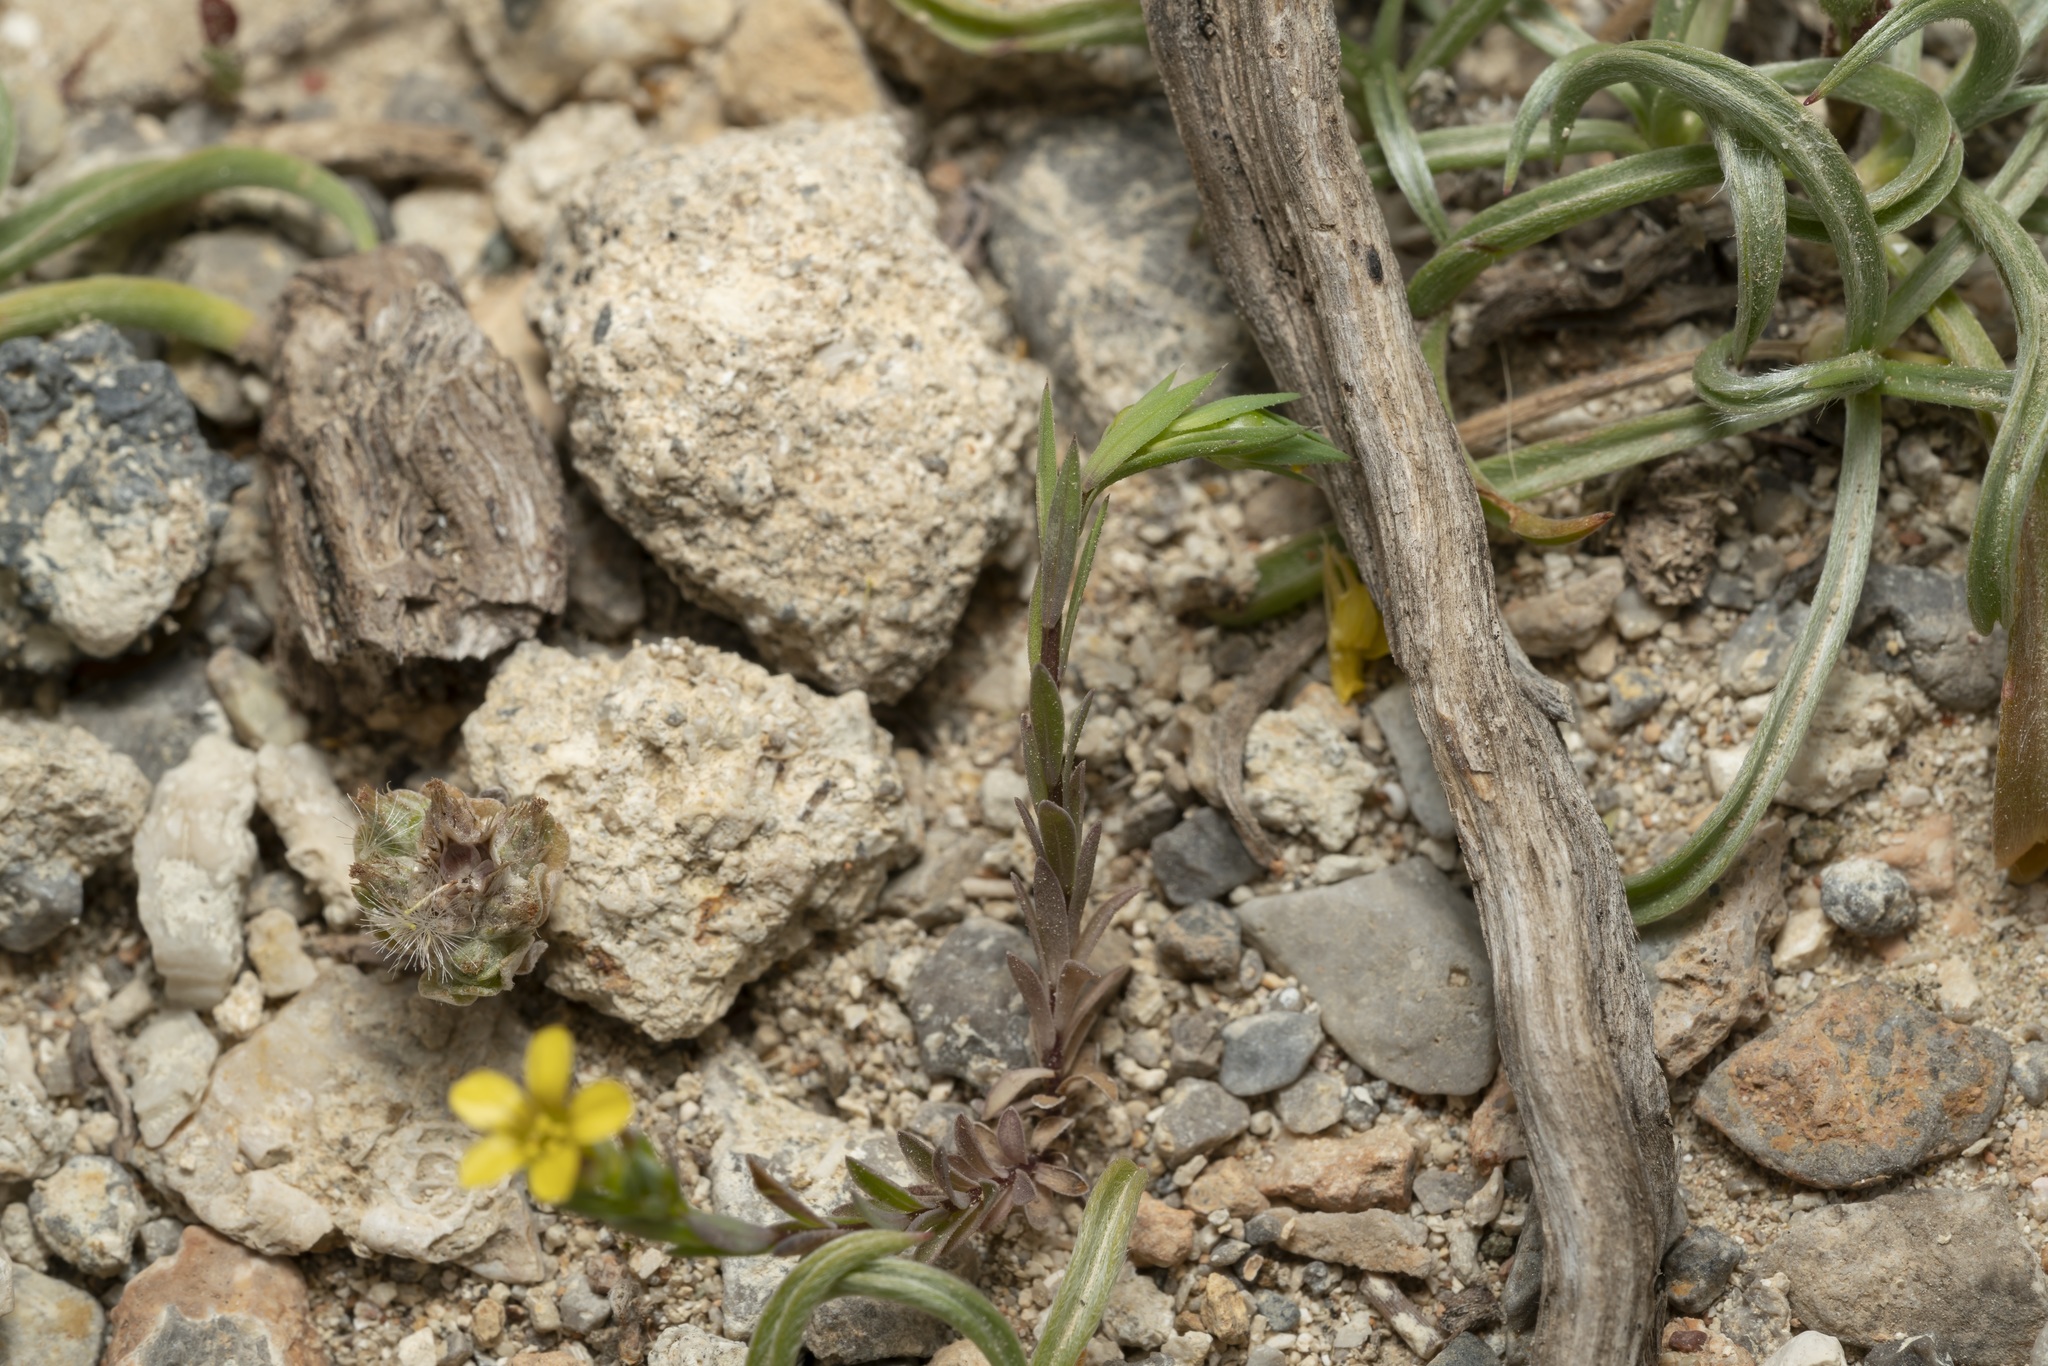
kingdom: Plantae
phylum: Tracheophyta
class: Magnoliopsida
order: Malpighiales
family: Linaceae
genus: Linum
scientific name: Linum strictum
